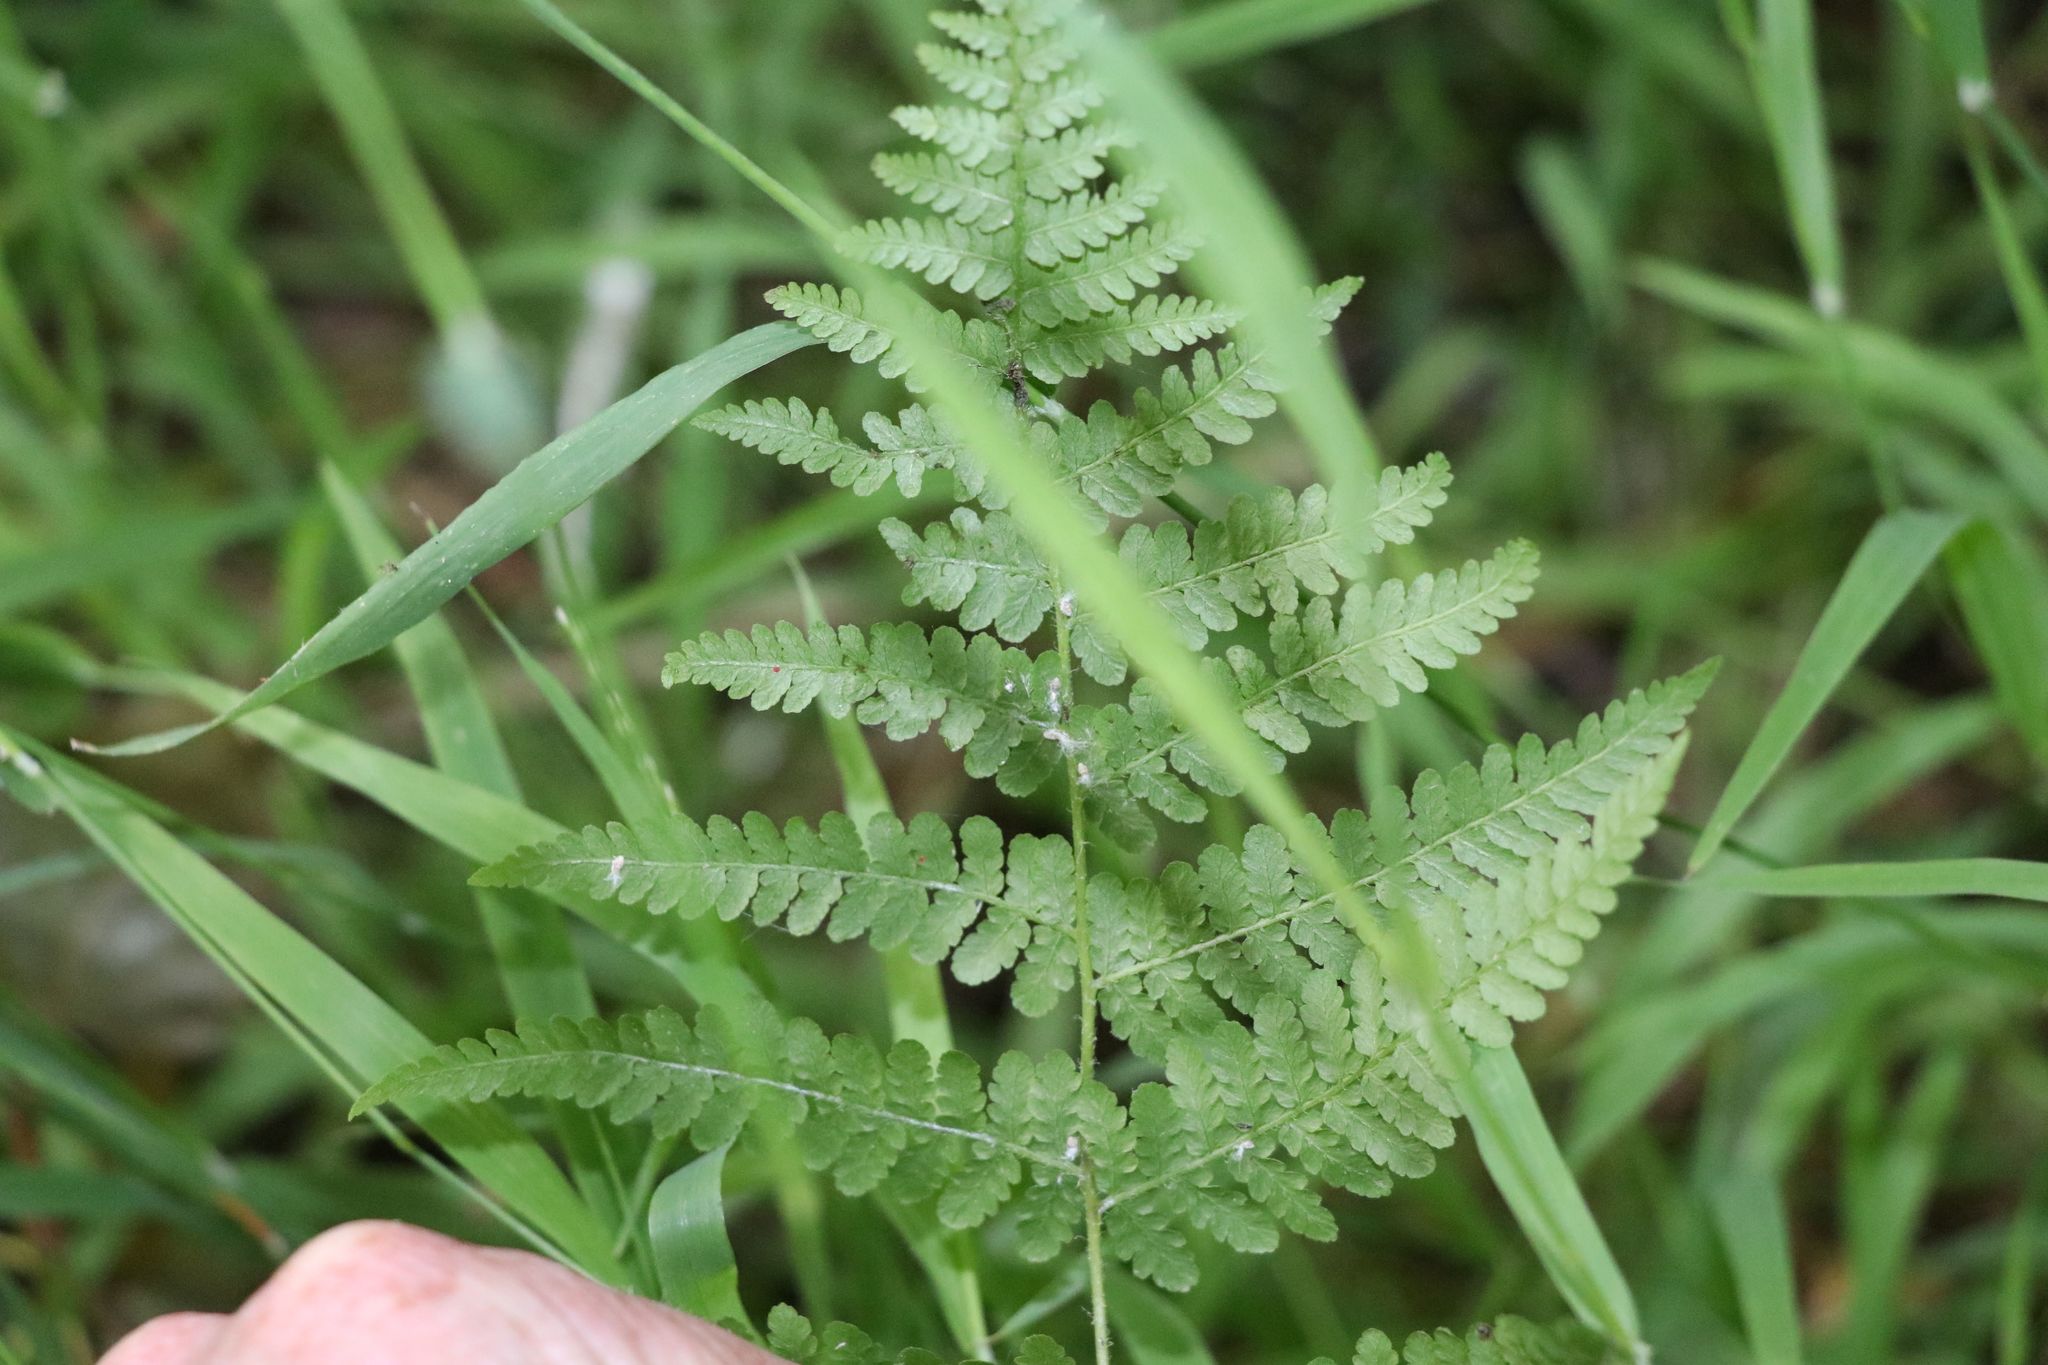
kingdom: Plantae
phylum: Tracheophyta
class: Polypodiopsida
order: Polypodiales
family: Dennstaedtiaceae
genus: Hypolepis
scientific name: Hypolepis ambigua
